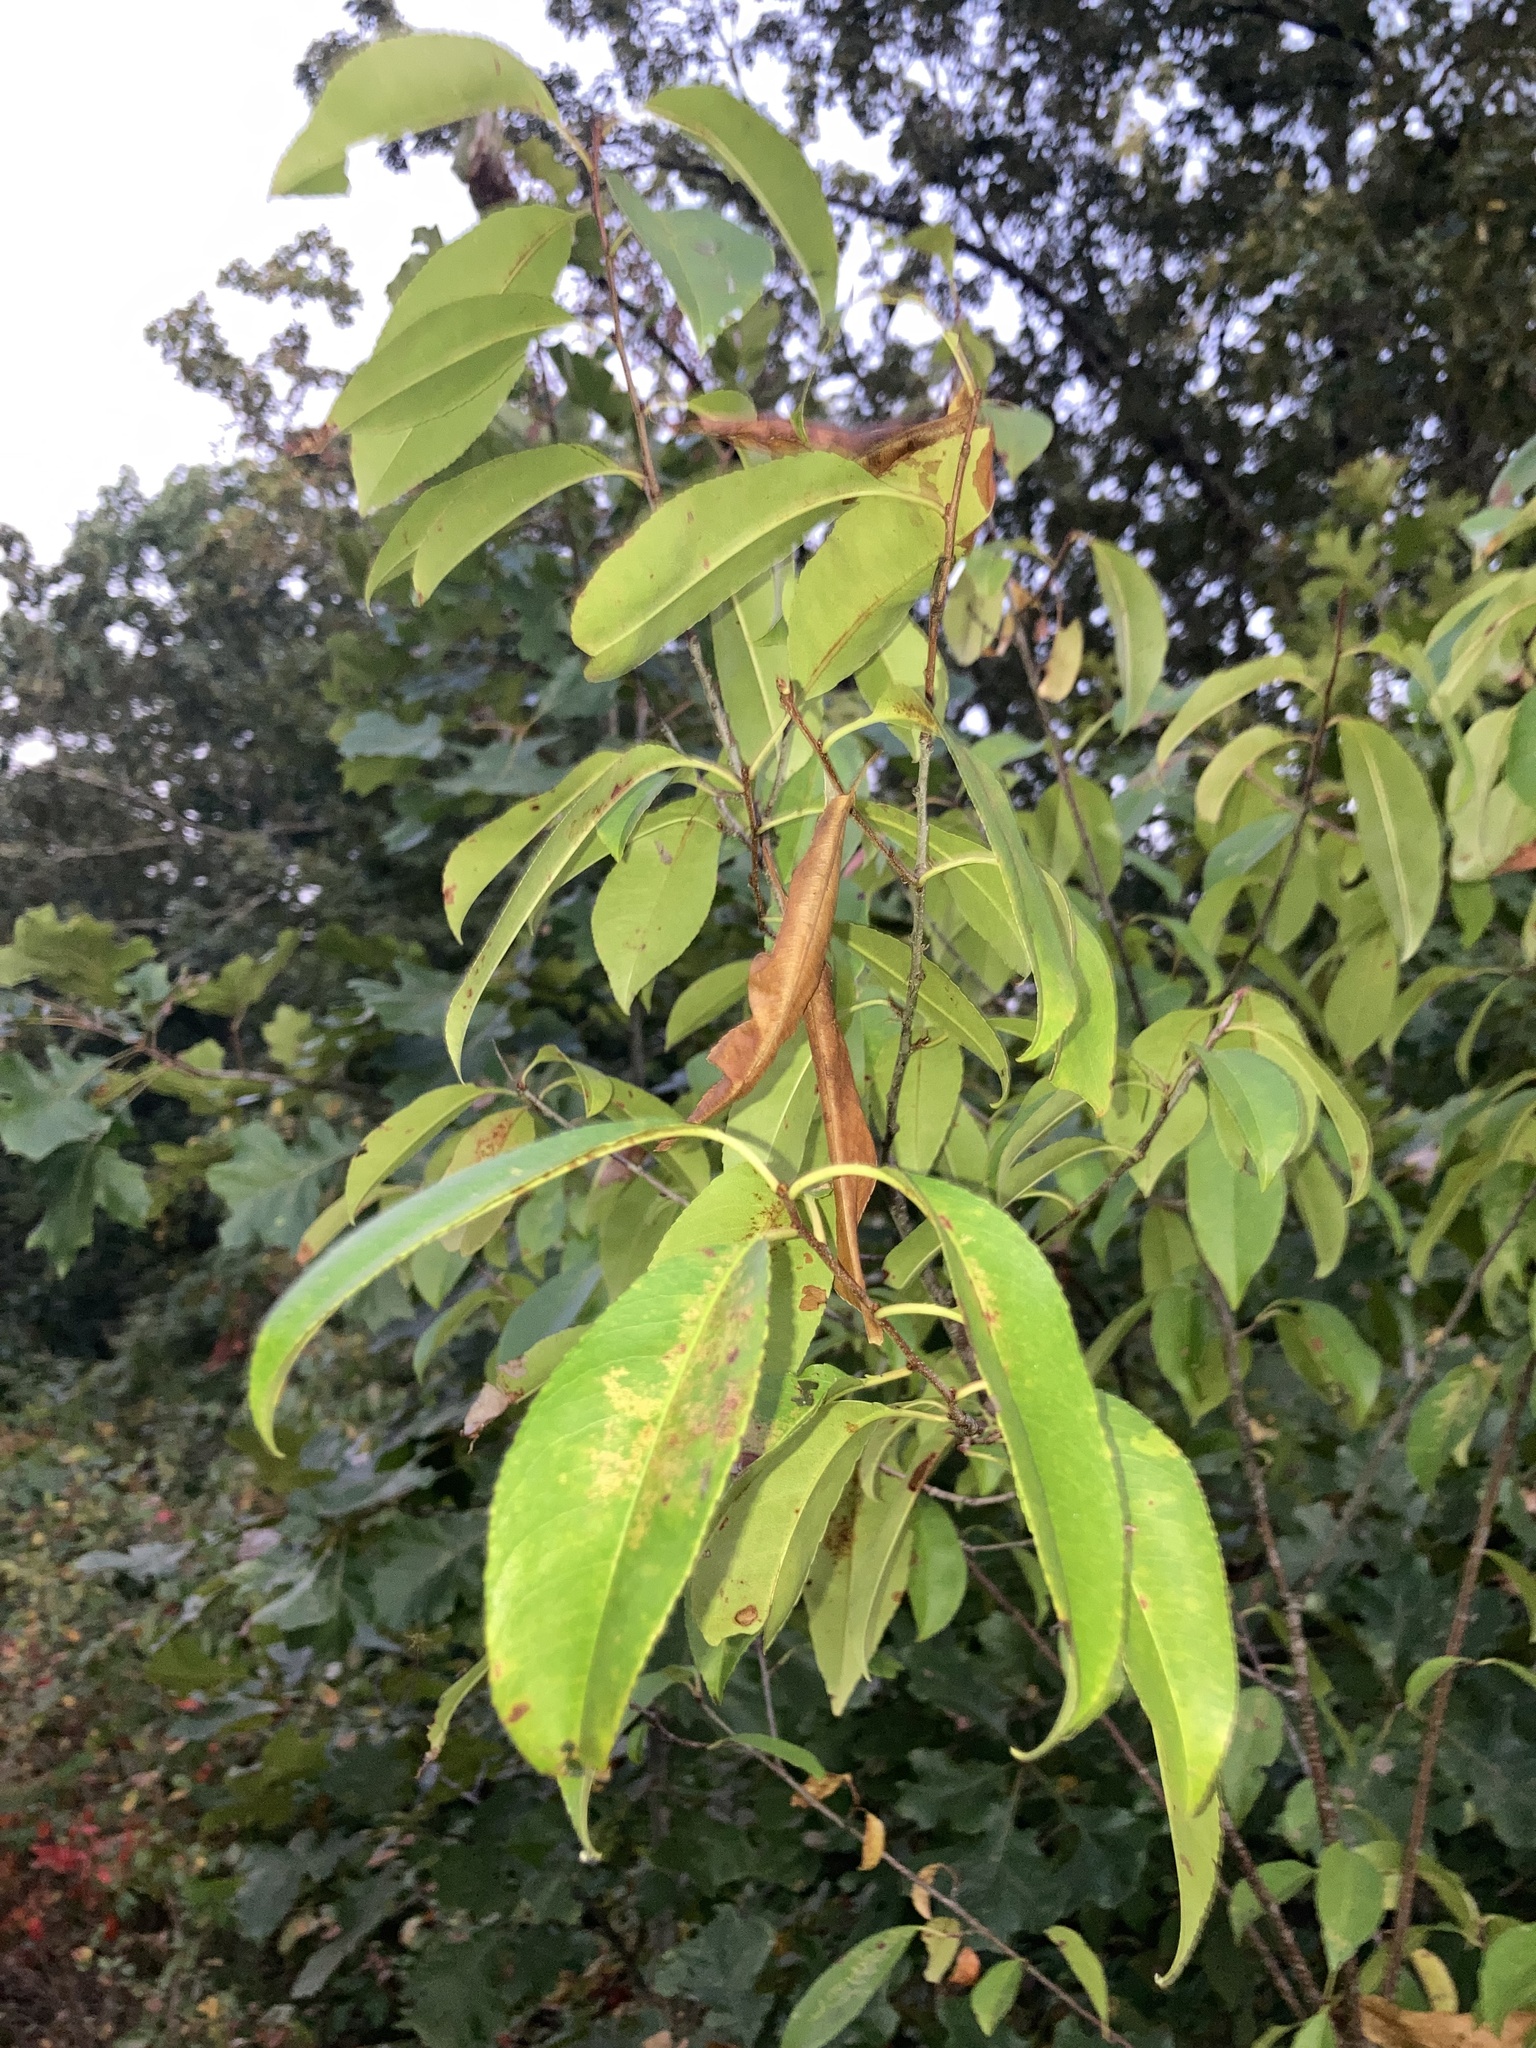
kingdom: Plantae
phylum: Tracheophyta
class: Magnoliopsida
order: Rosales
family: Rosaceae
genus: Prunus
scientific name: Prunus serotina
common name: Black cherry
